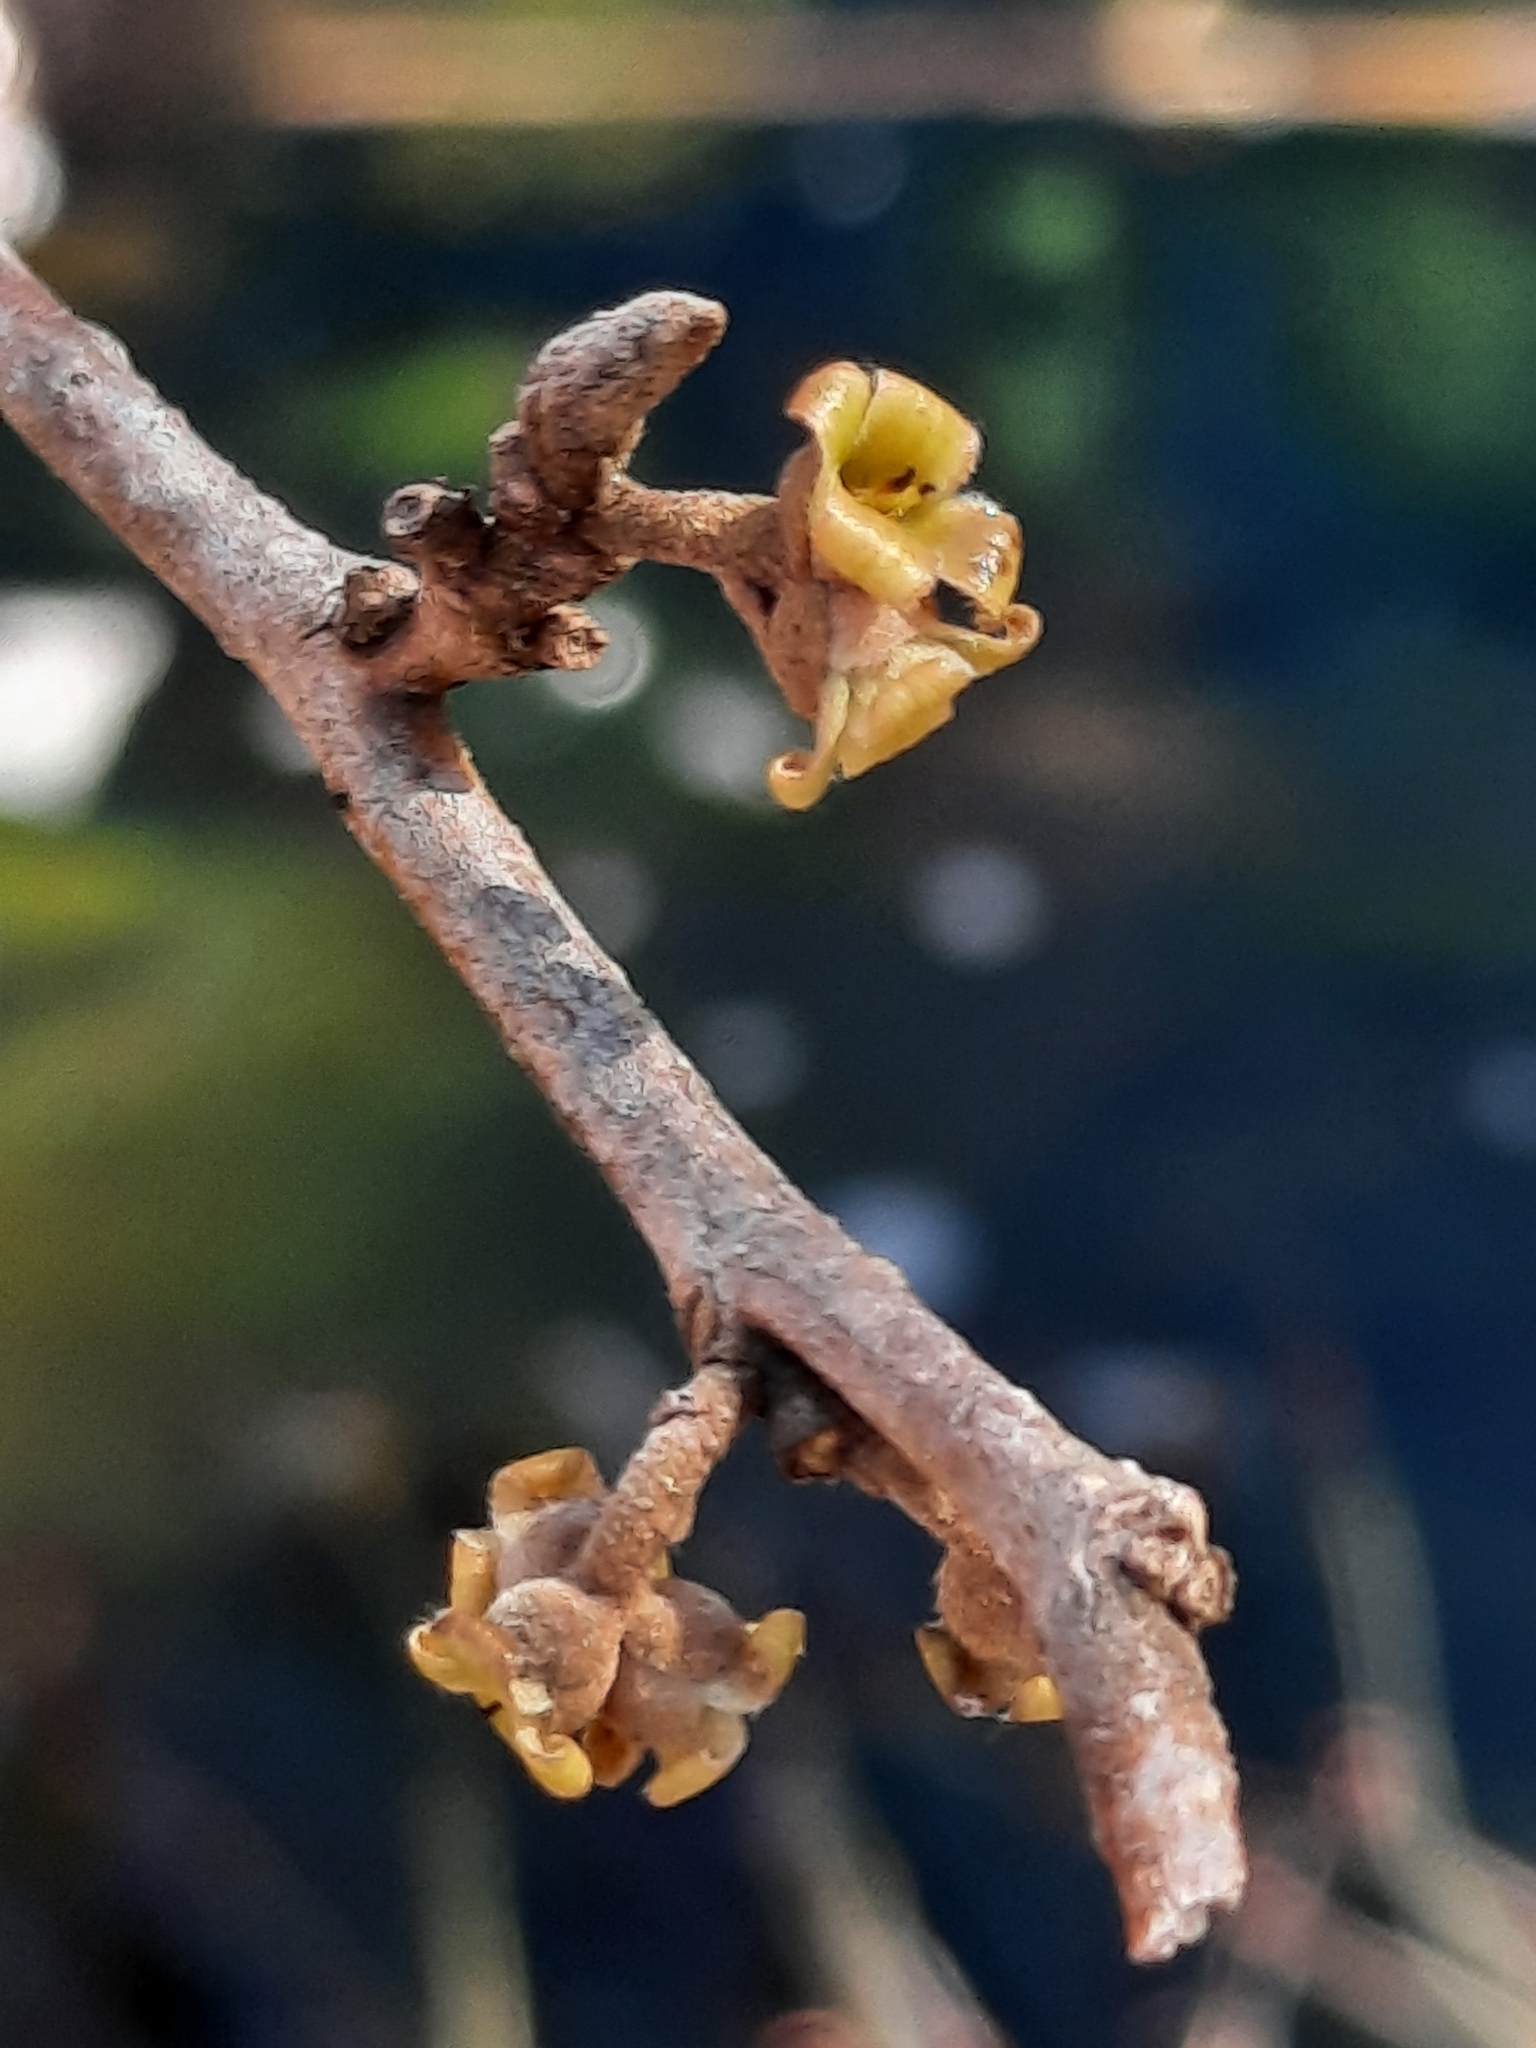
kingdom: Plantae
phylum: Tracheophyta
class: Magnoliopsida
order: Saxifragales
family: Hamamelidaceae
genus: Hamamelis
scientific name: Hamamelis virginiana
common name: Witch-hazel
